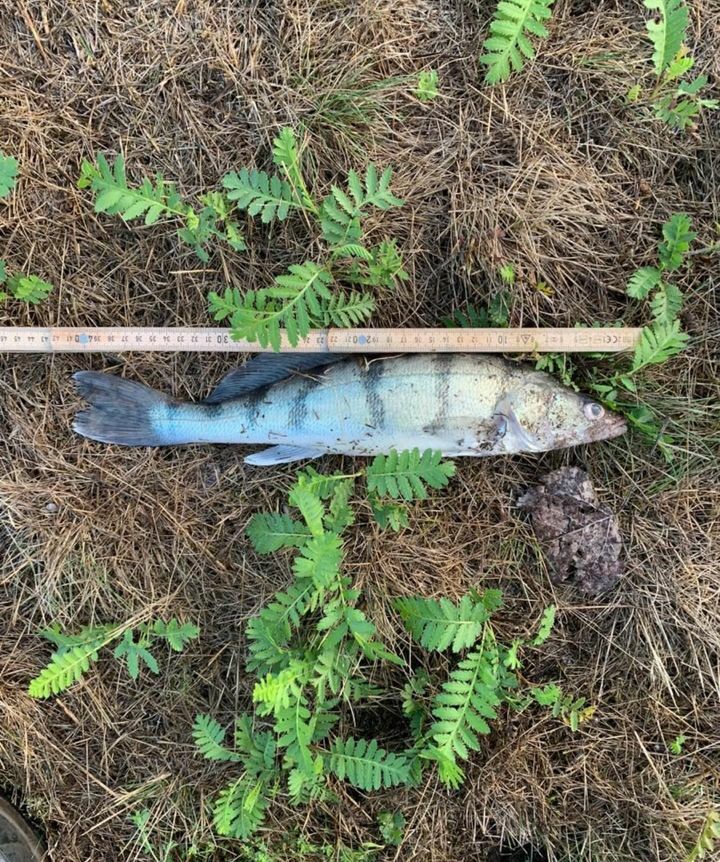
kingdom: Animalia
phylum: Chordata
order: Perciformes
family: Percidae
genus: Sander
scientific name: Sander volgensis
